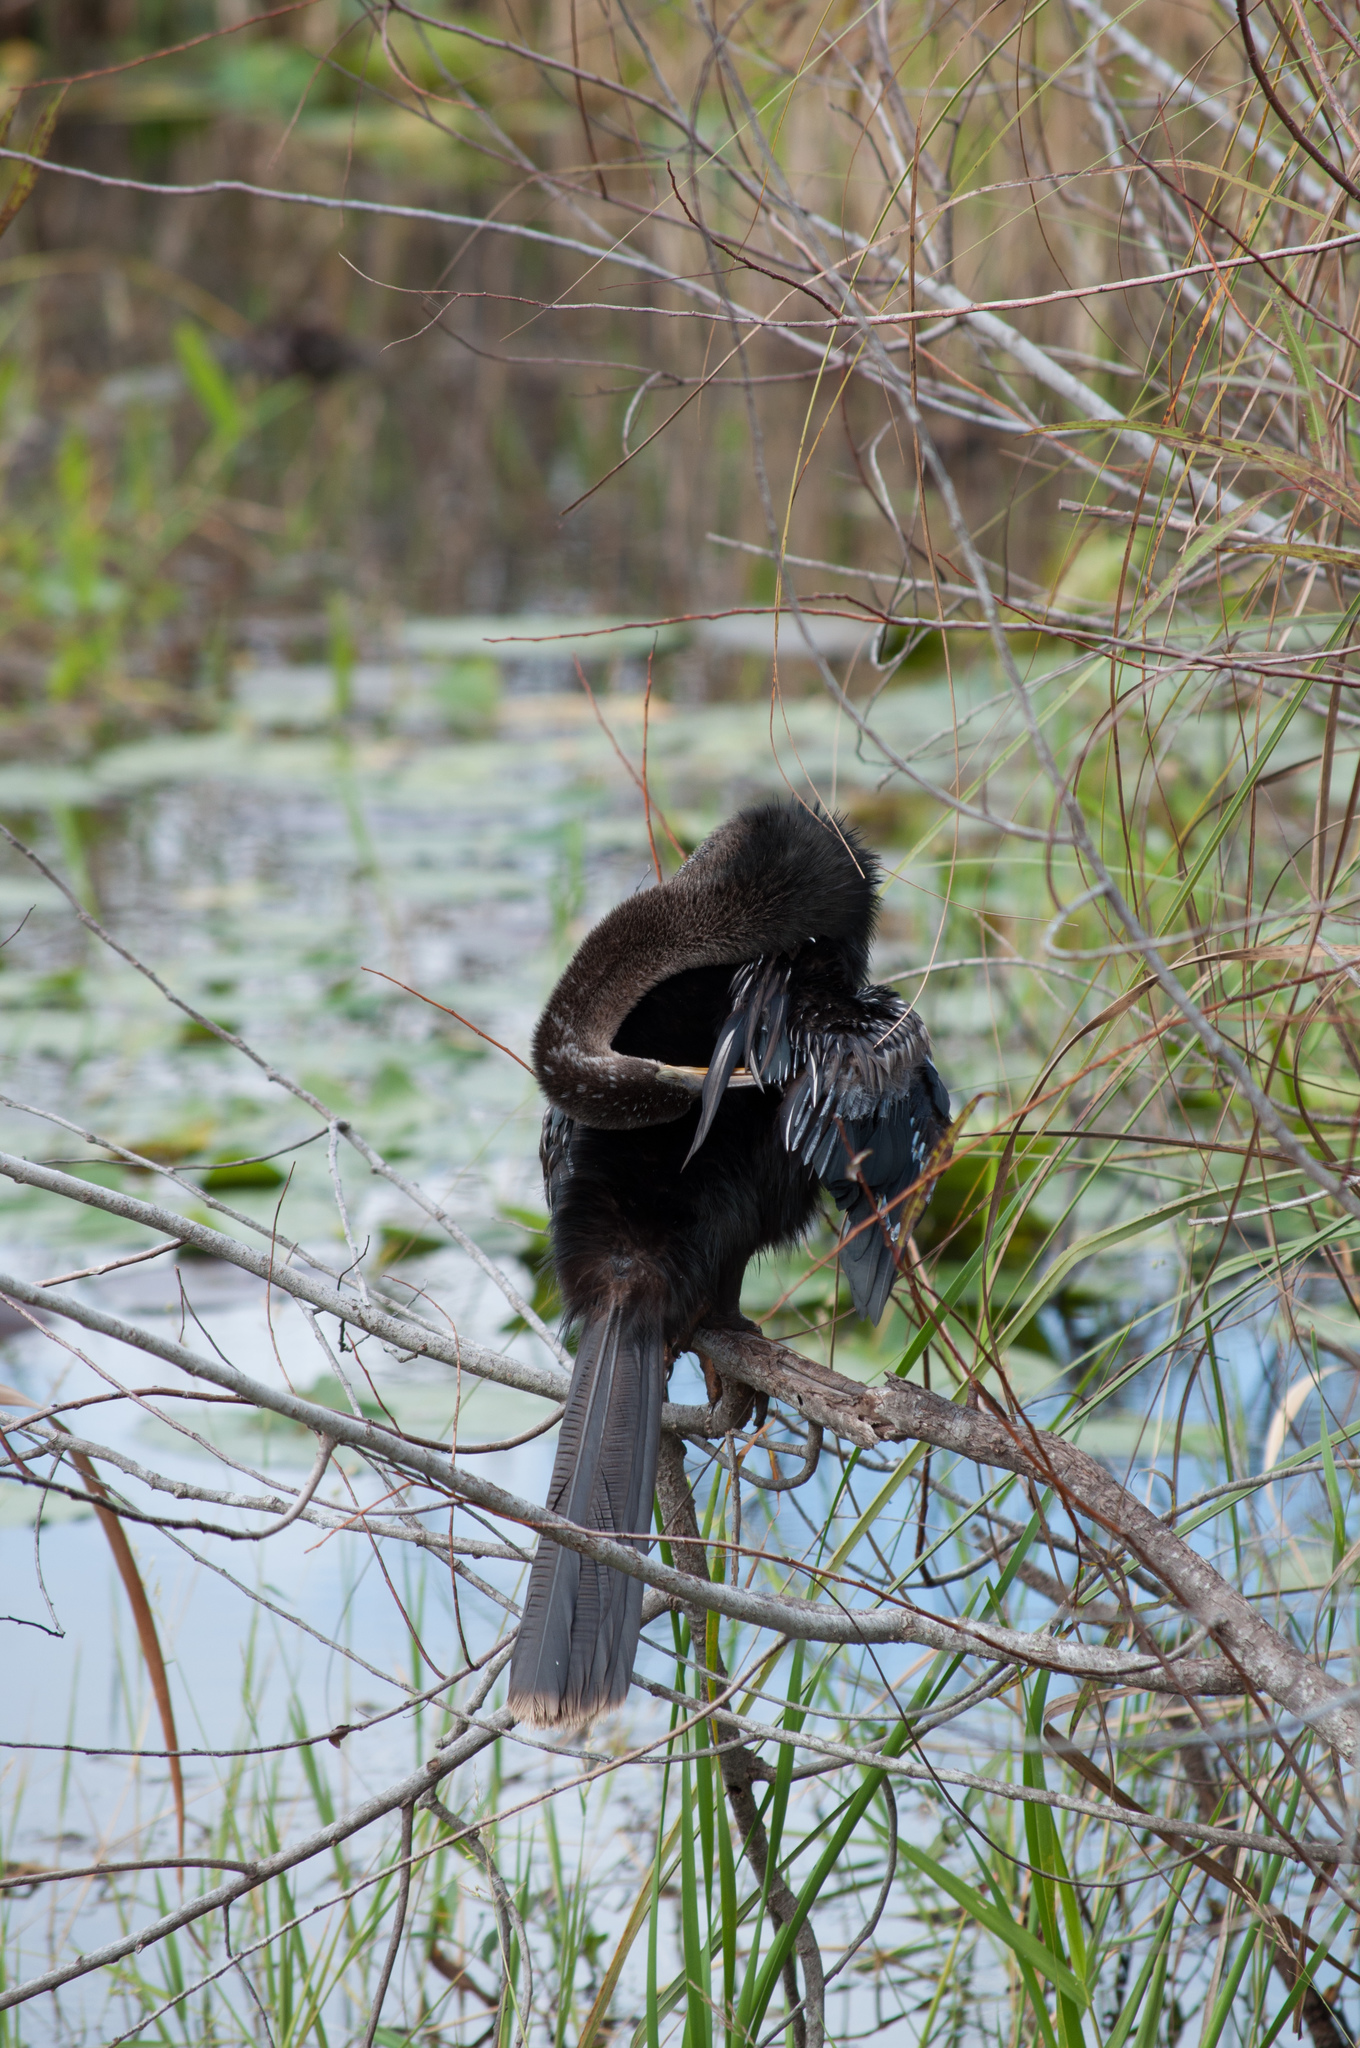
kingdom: Animalia
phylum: Chordata
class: Aves
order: Suliformes
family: Anhingidae
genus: Anhinga
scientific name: Anhinga anhinga
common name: Anhinga
